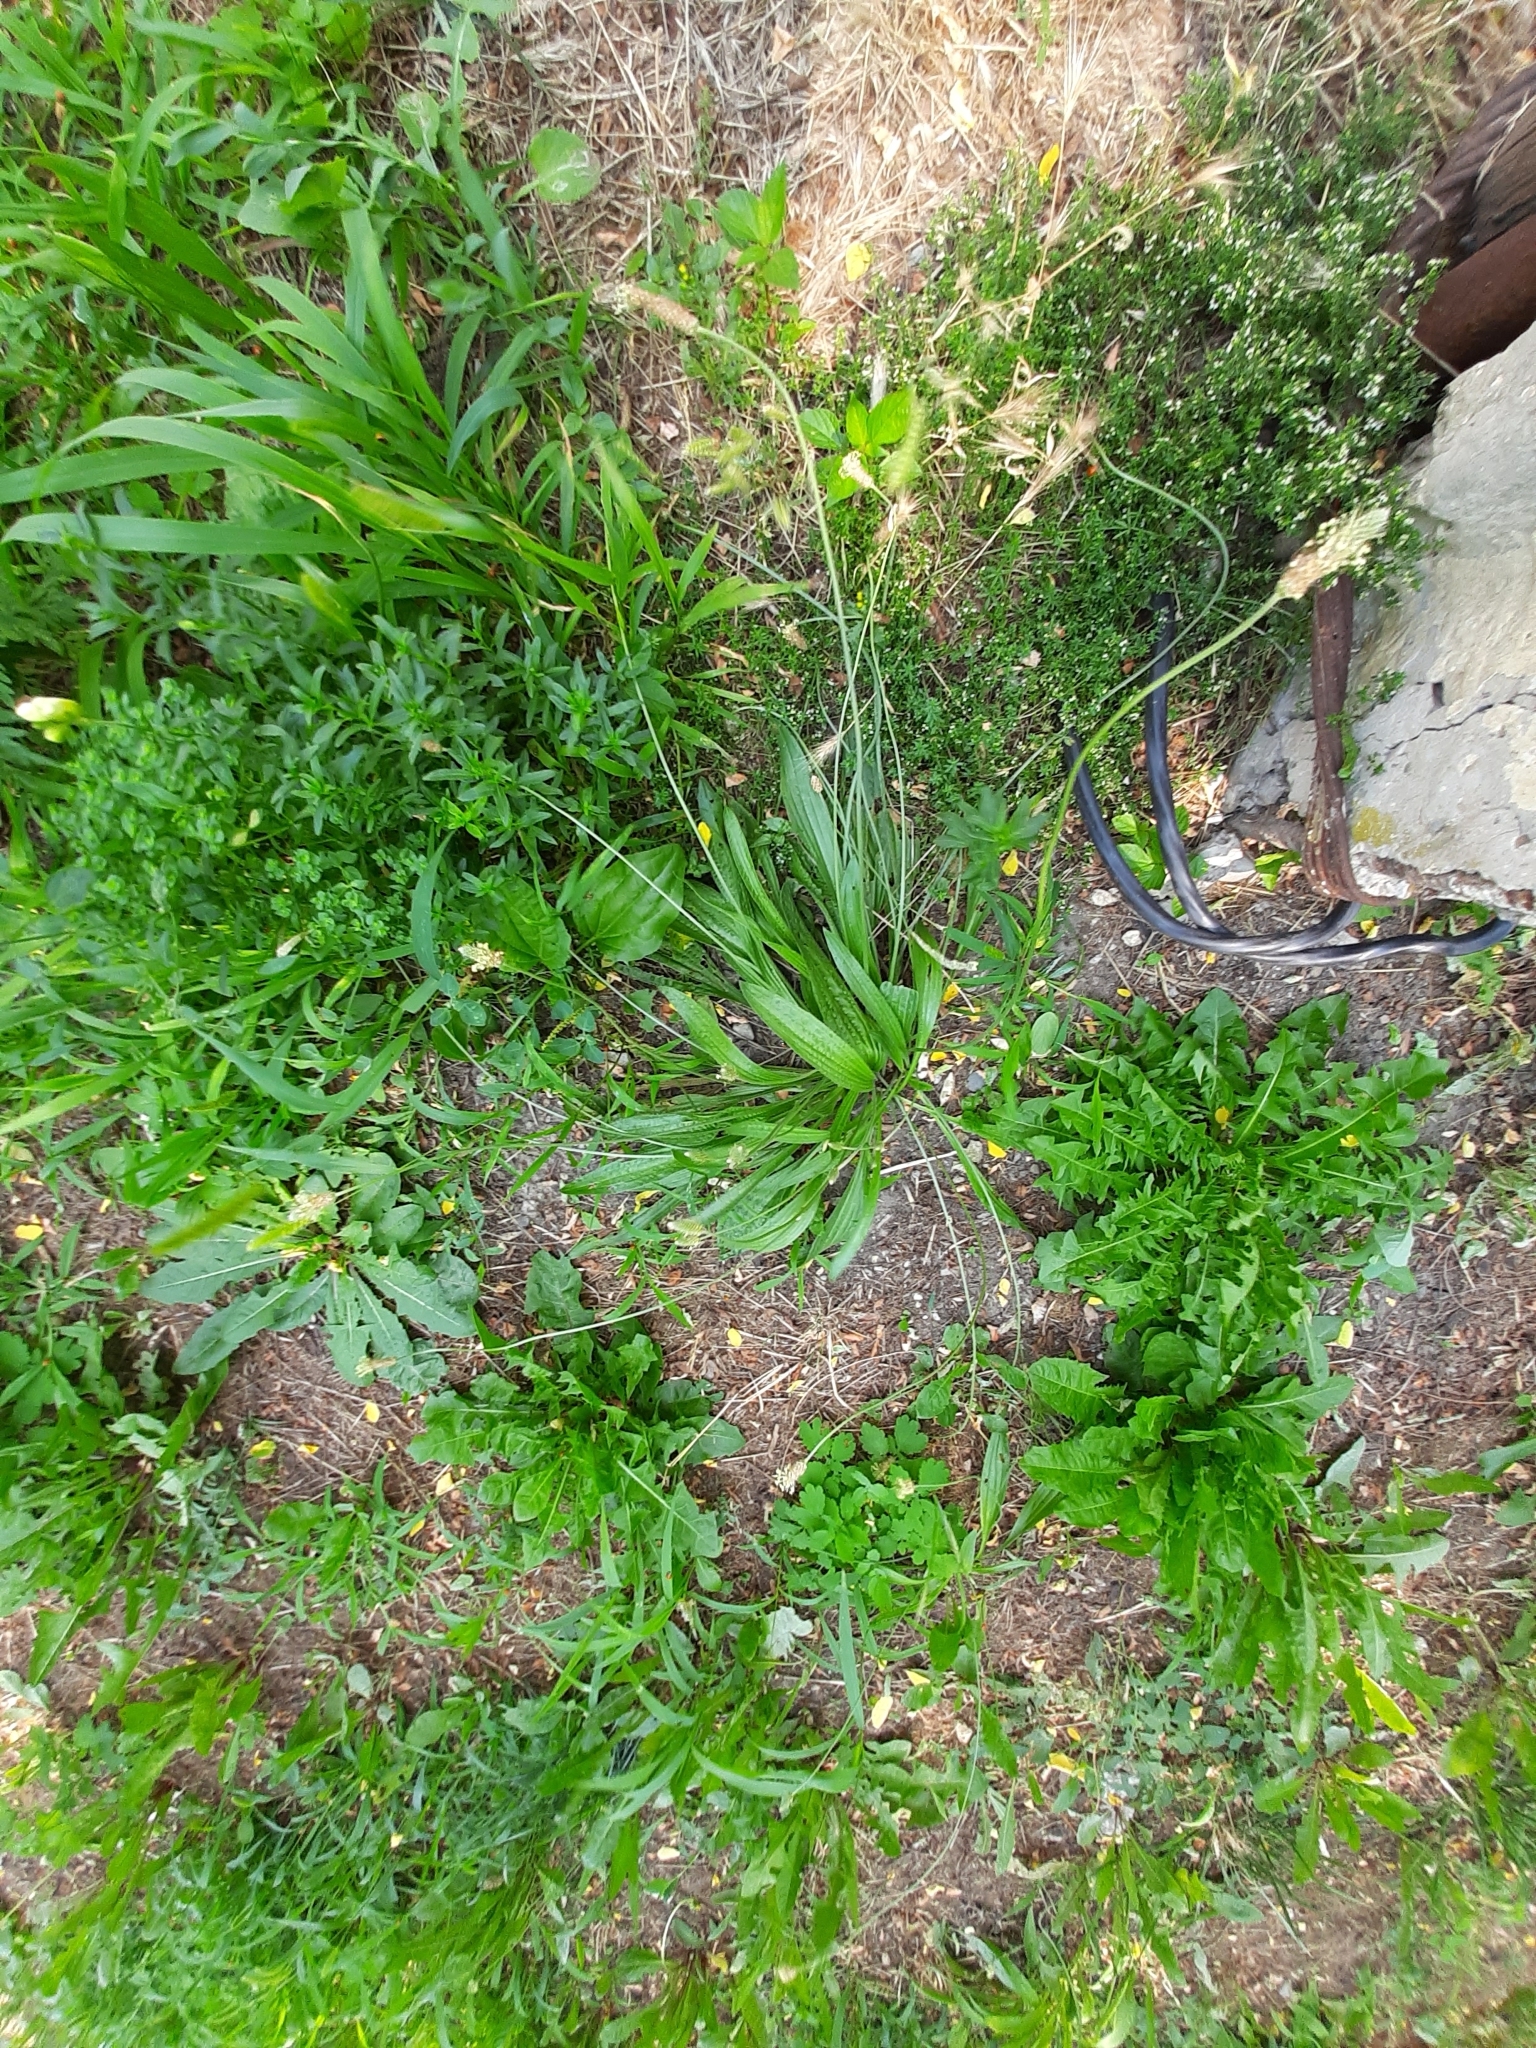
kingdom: Plantae
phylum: Tracheophyta
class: Magnoliopsida
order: Lamiales
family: Plantaginaceae
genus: Plantago
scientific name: Plantago lanceolata
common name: Ribwort plantain
